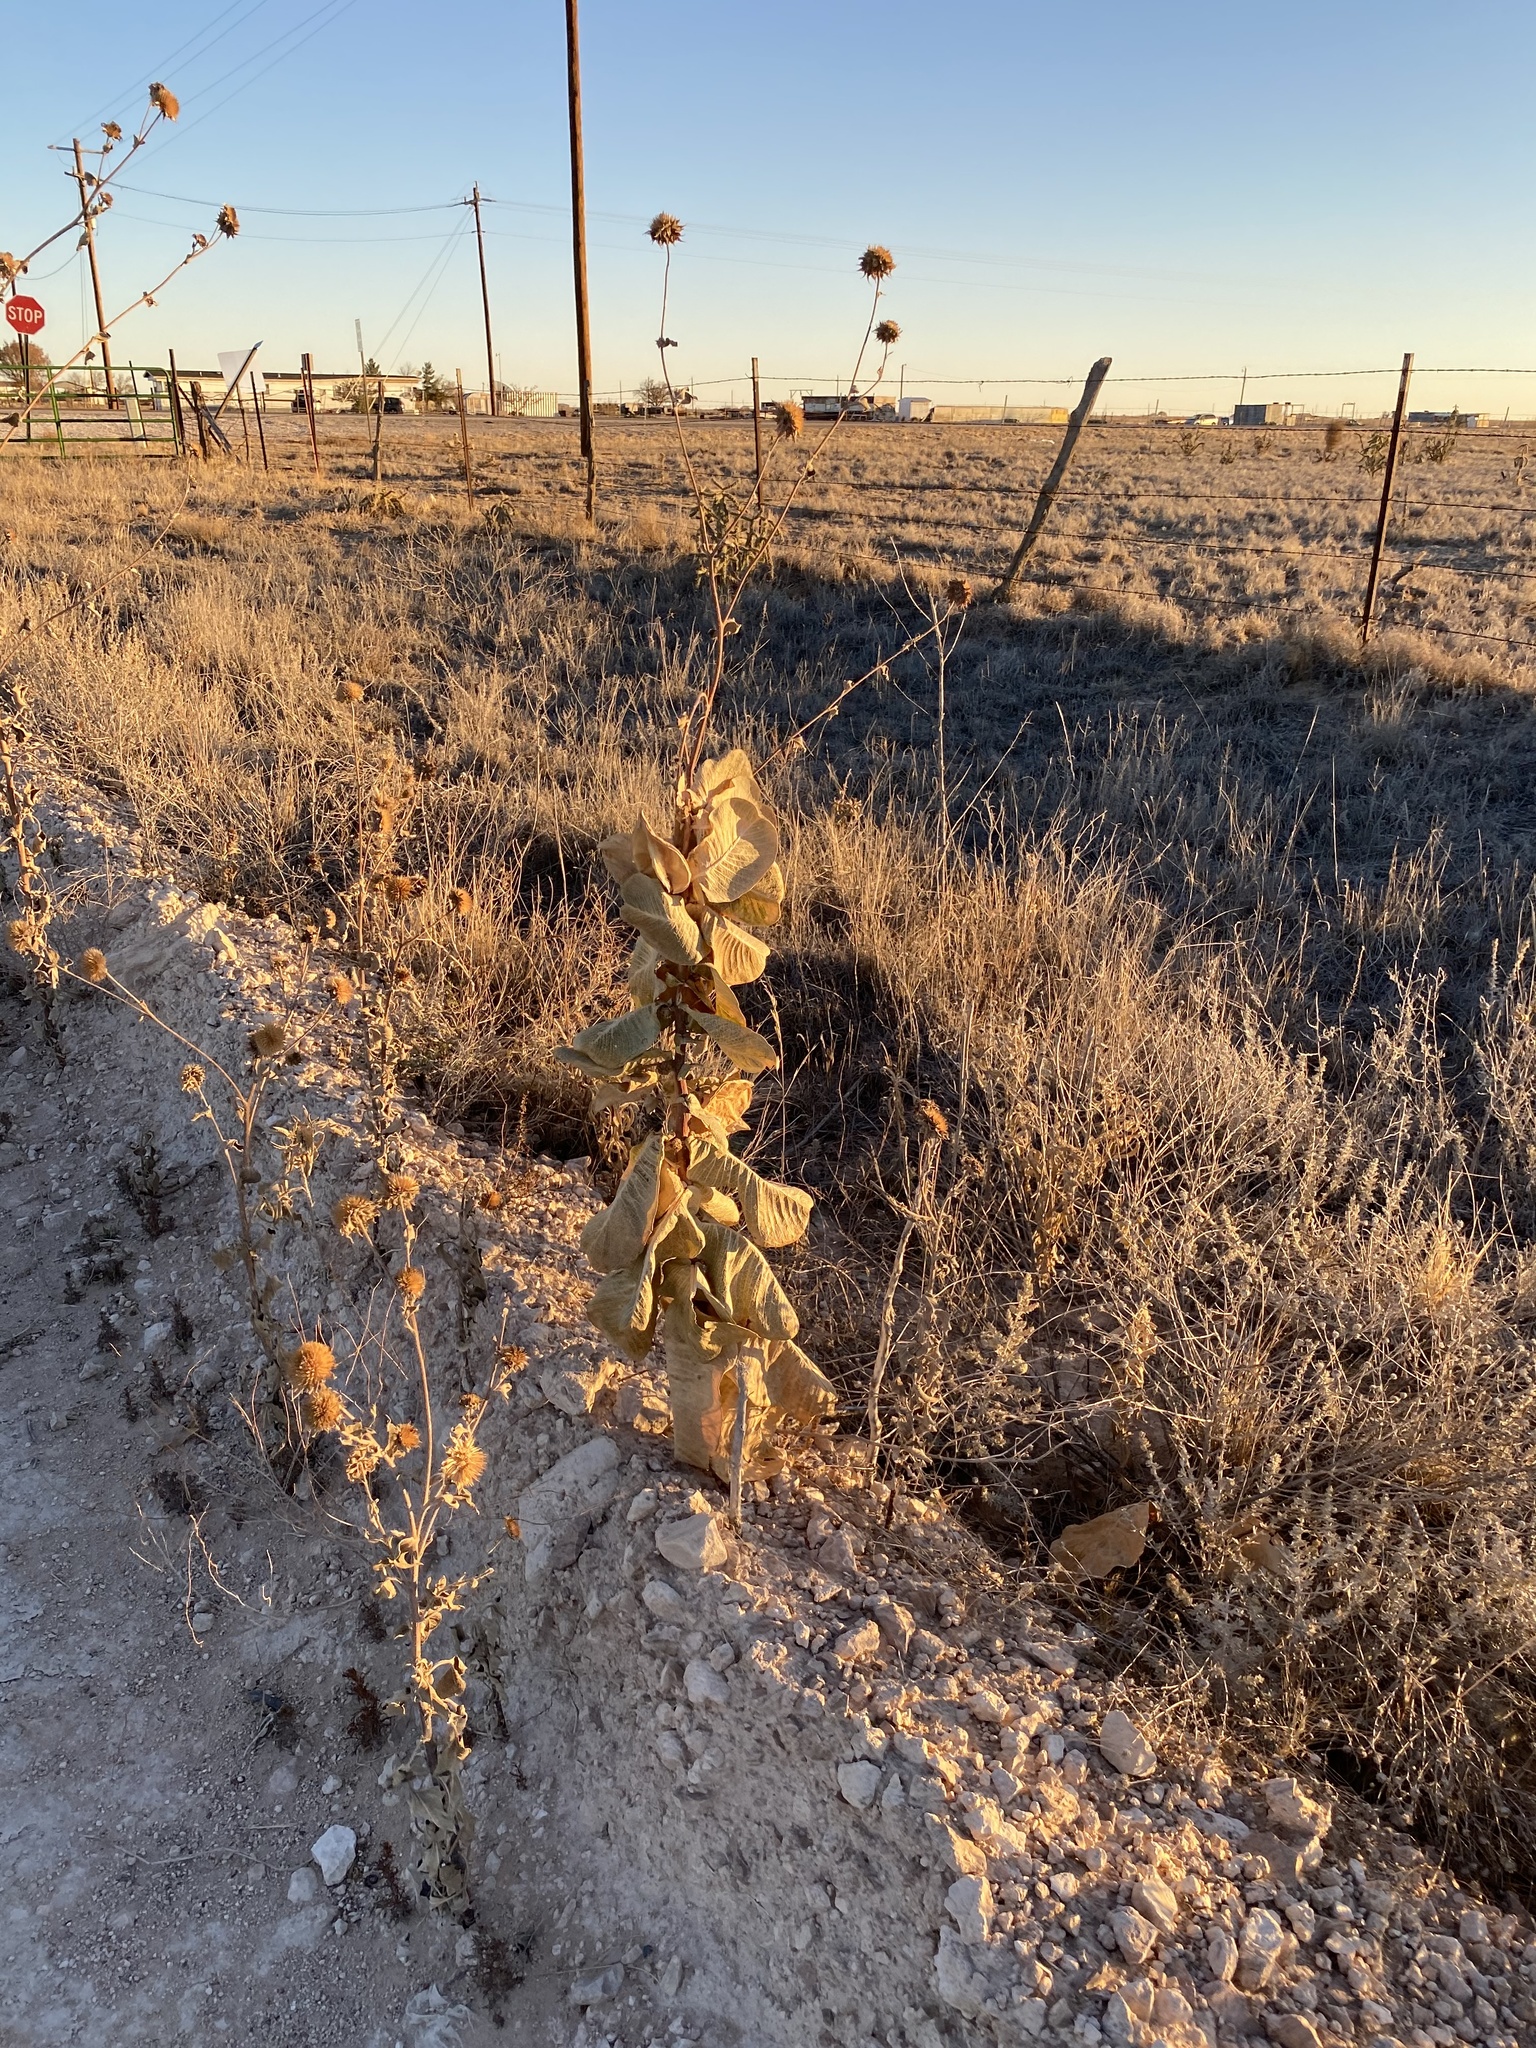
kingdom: Plantae
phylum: Tracheophyta
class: Magnoliopsida
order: Gentianales
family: Apocynaceae
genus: Asclepias
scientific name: Asclepias latifolia
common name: Broadleaf milkweed
